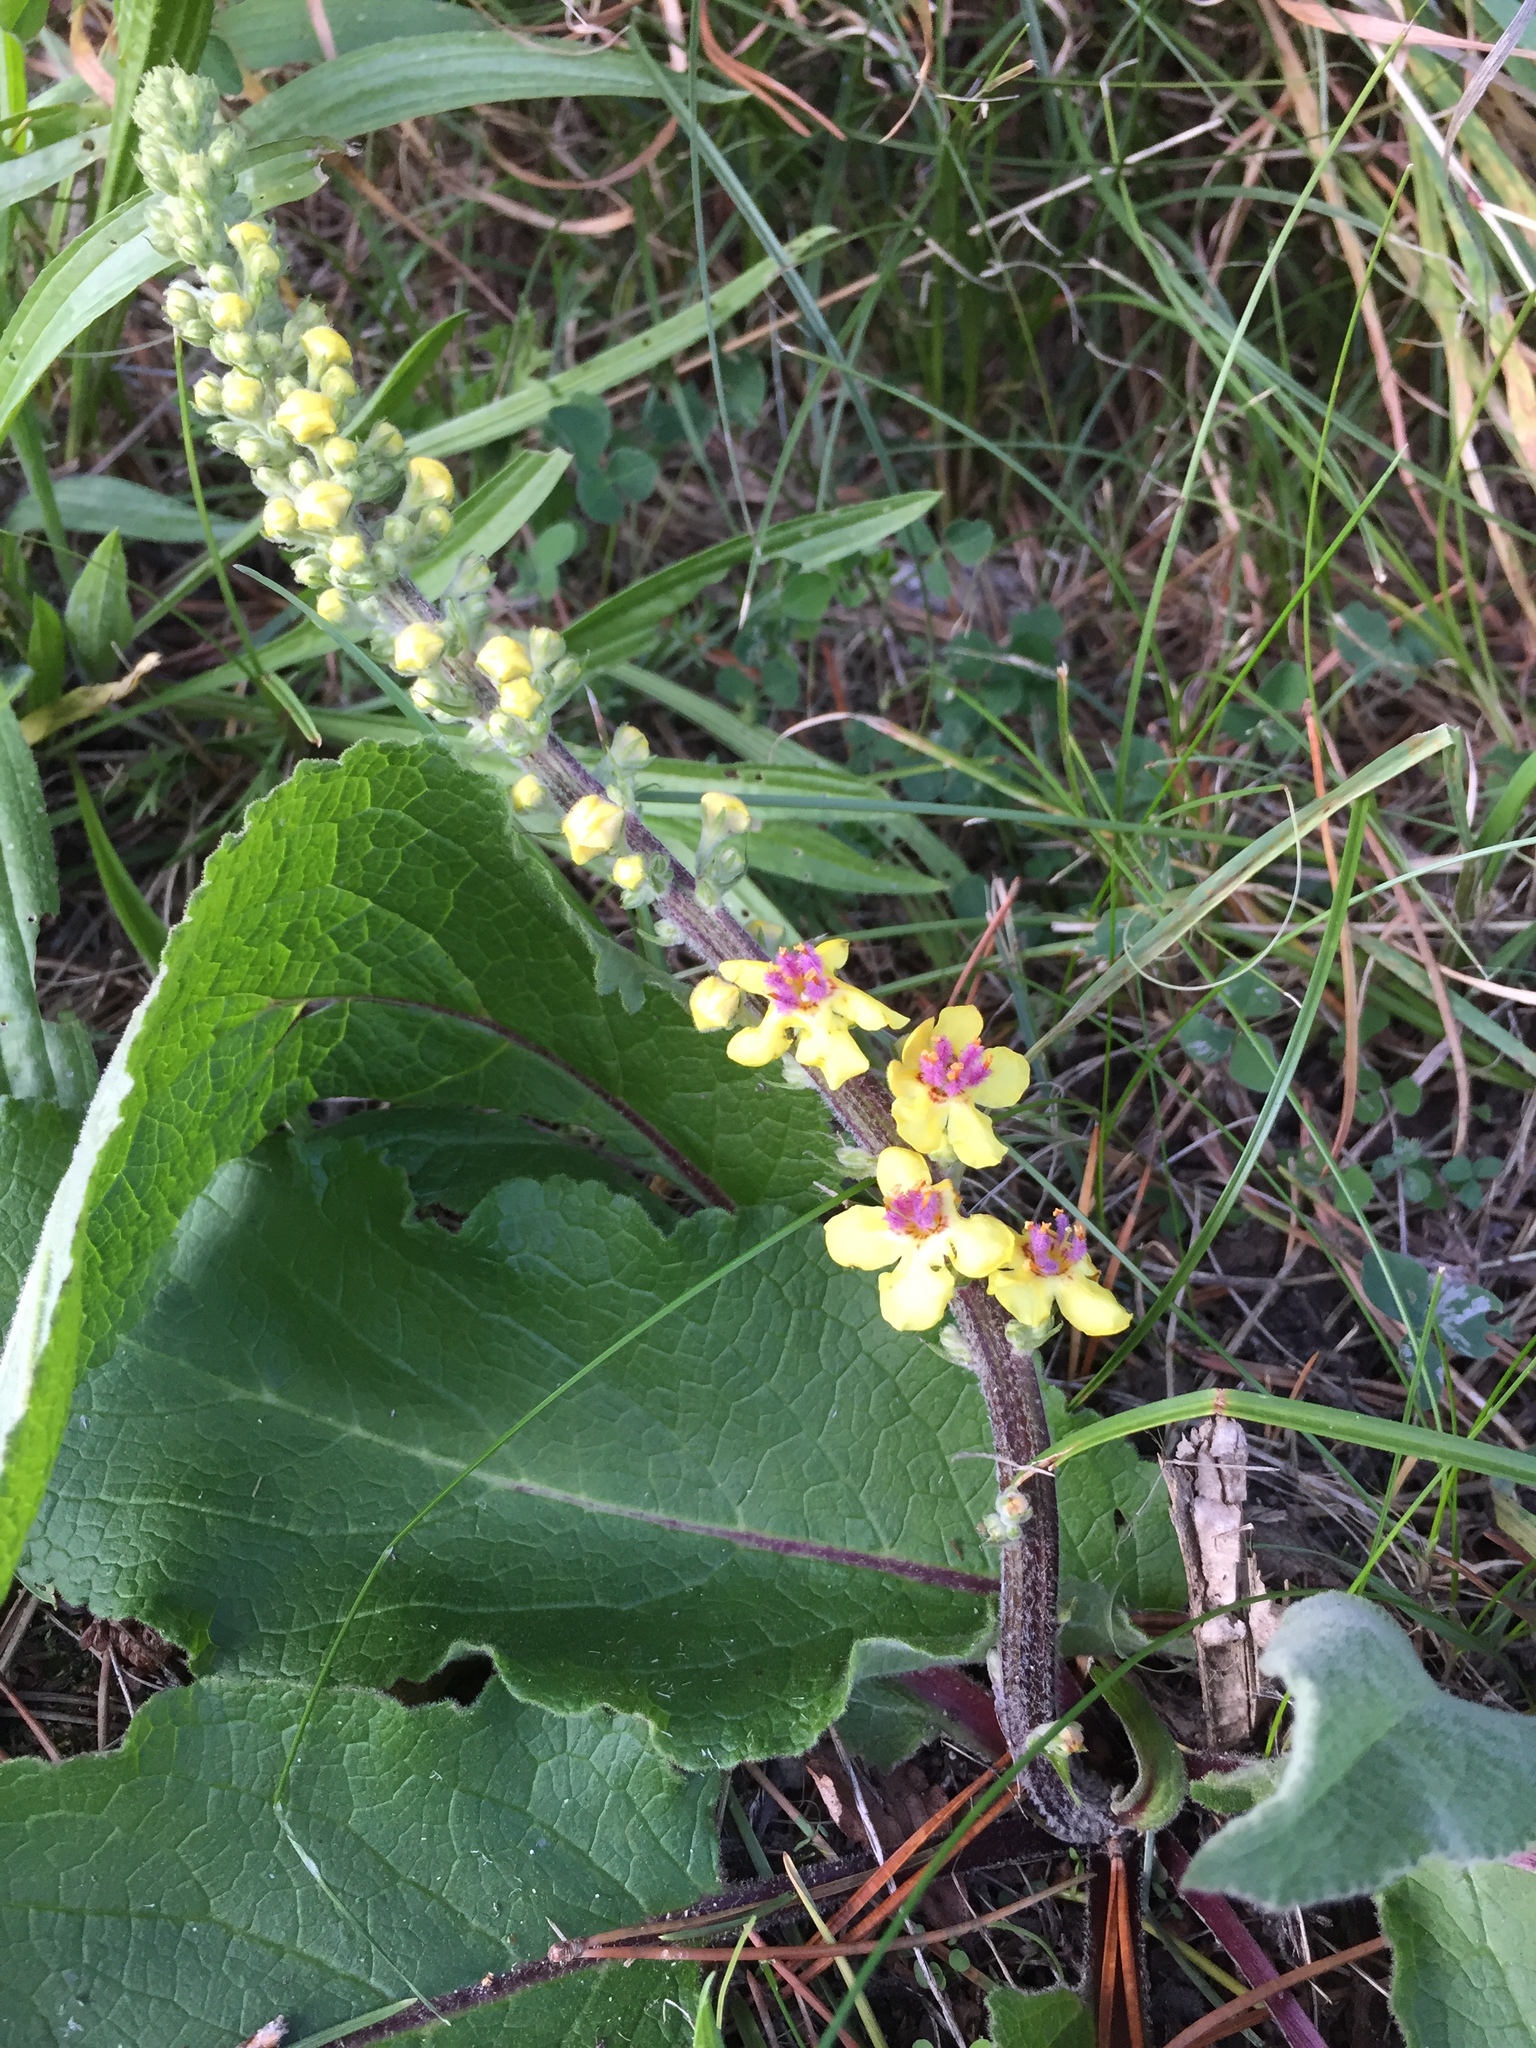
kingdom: Plantae
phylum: Tracheophyta
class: Magnoliopsida
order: Lamiales
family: Scrophulariaceae
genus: Verbascum
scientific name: Verbascum nigrum
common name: Dark mullein
